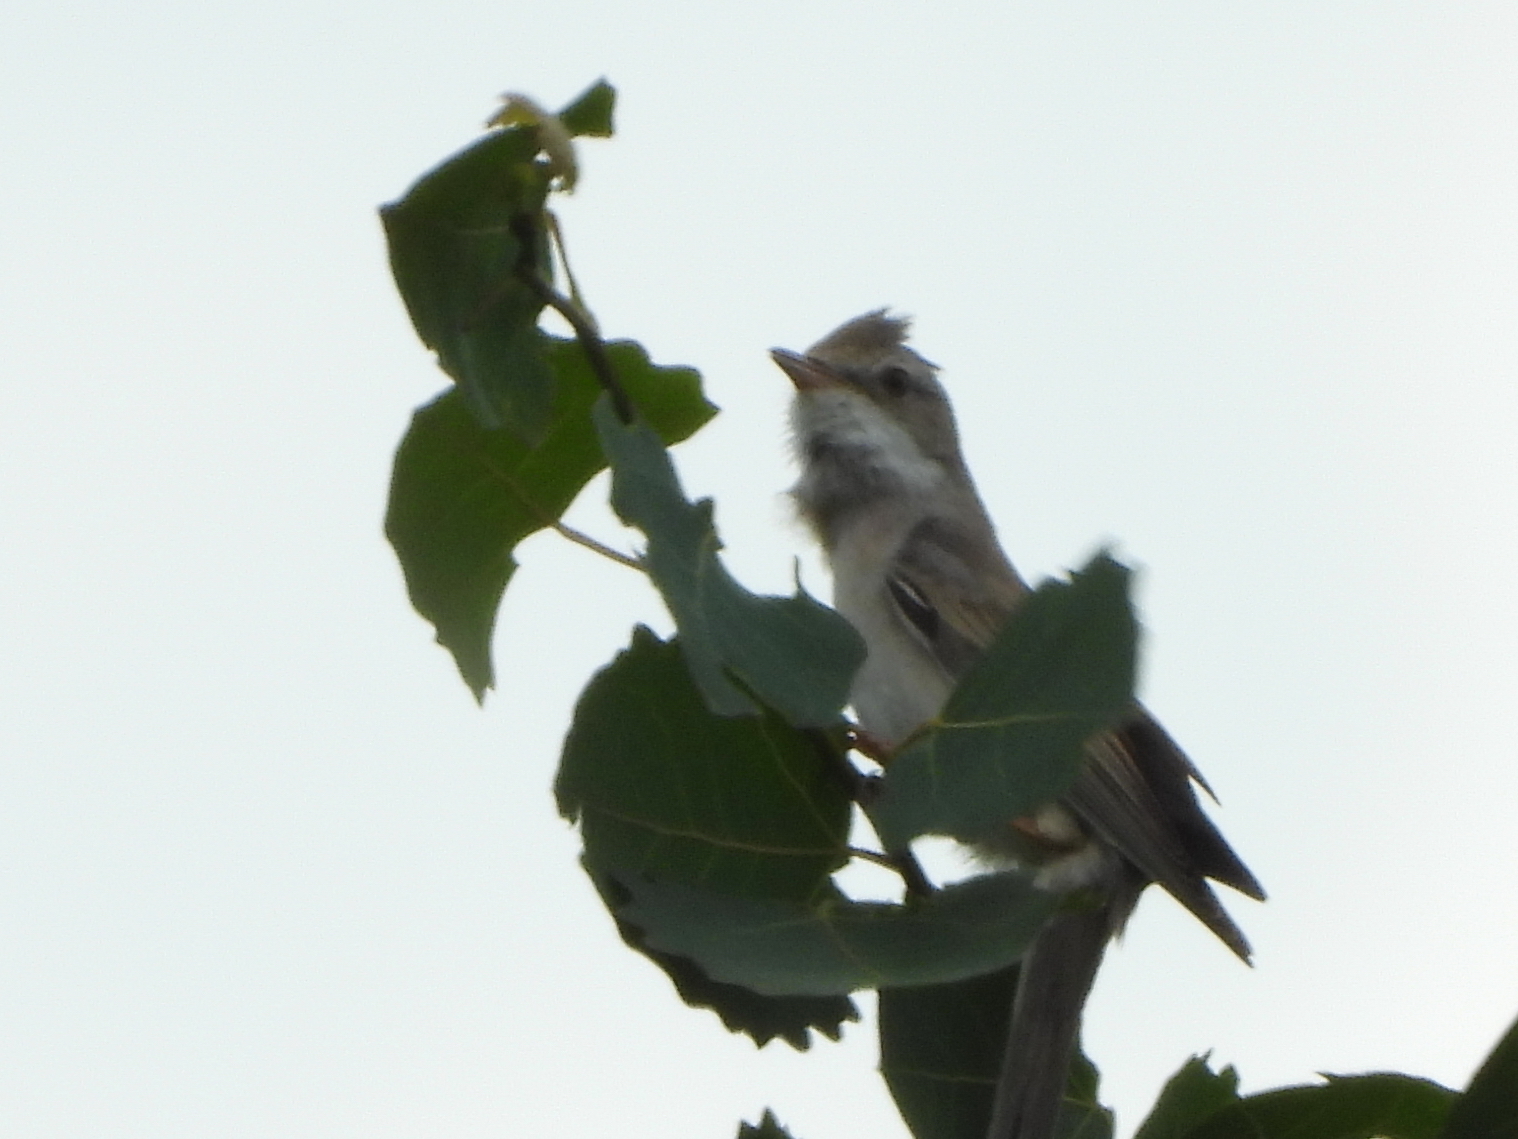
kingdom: Animalia
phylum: Chordata
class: Aves
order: Passeriformes
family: Sylviidae
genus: Sylvia
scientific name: Sylvia communis
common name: Common whitethroat
